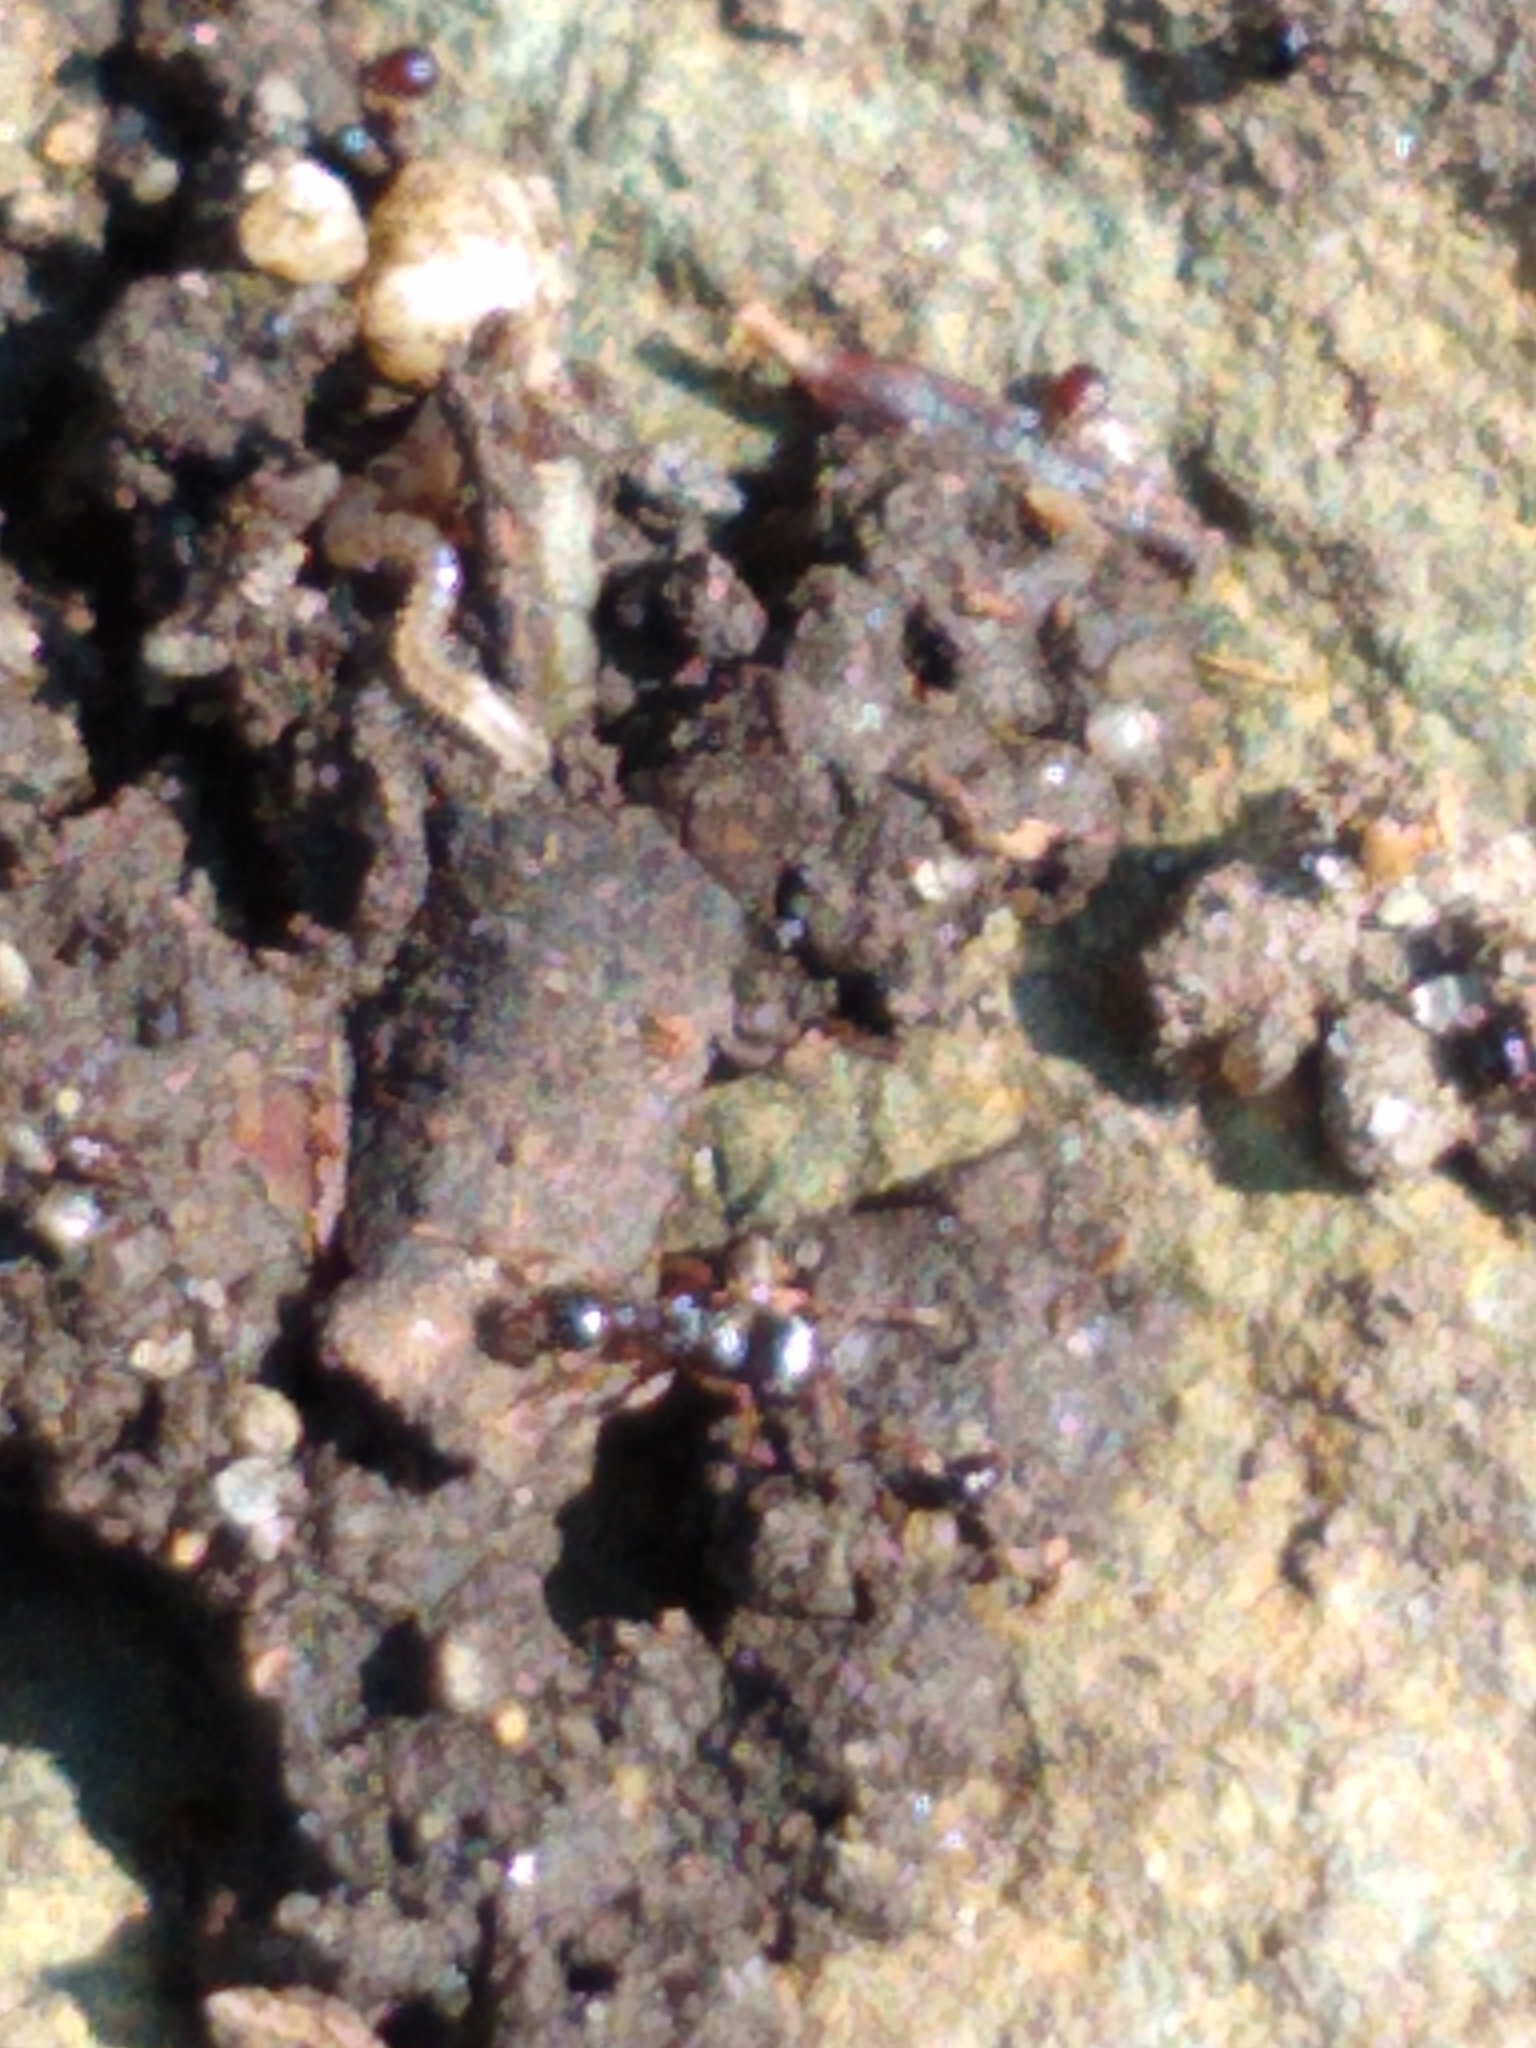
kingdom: Animalia
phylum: Arthropoda
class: Insecta
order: Hymenoptera
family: Formicidae
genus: Tetramorium
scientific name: Tetramorium immigrans
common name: Pavement ant
